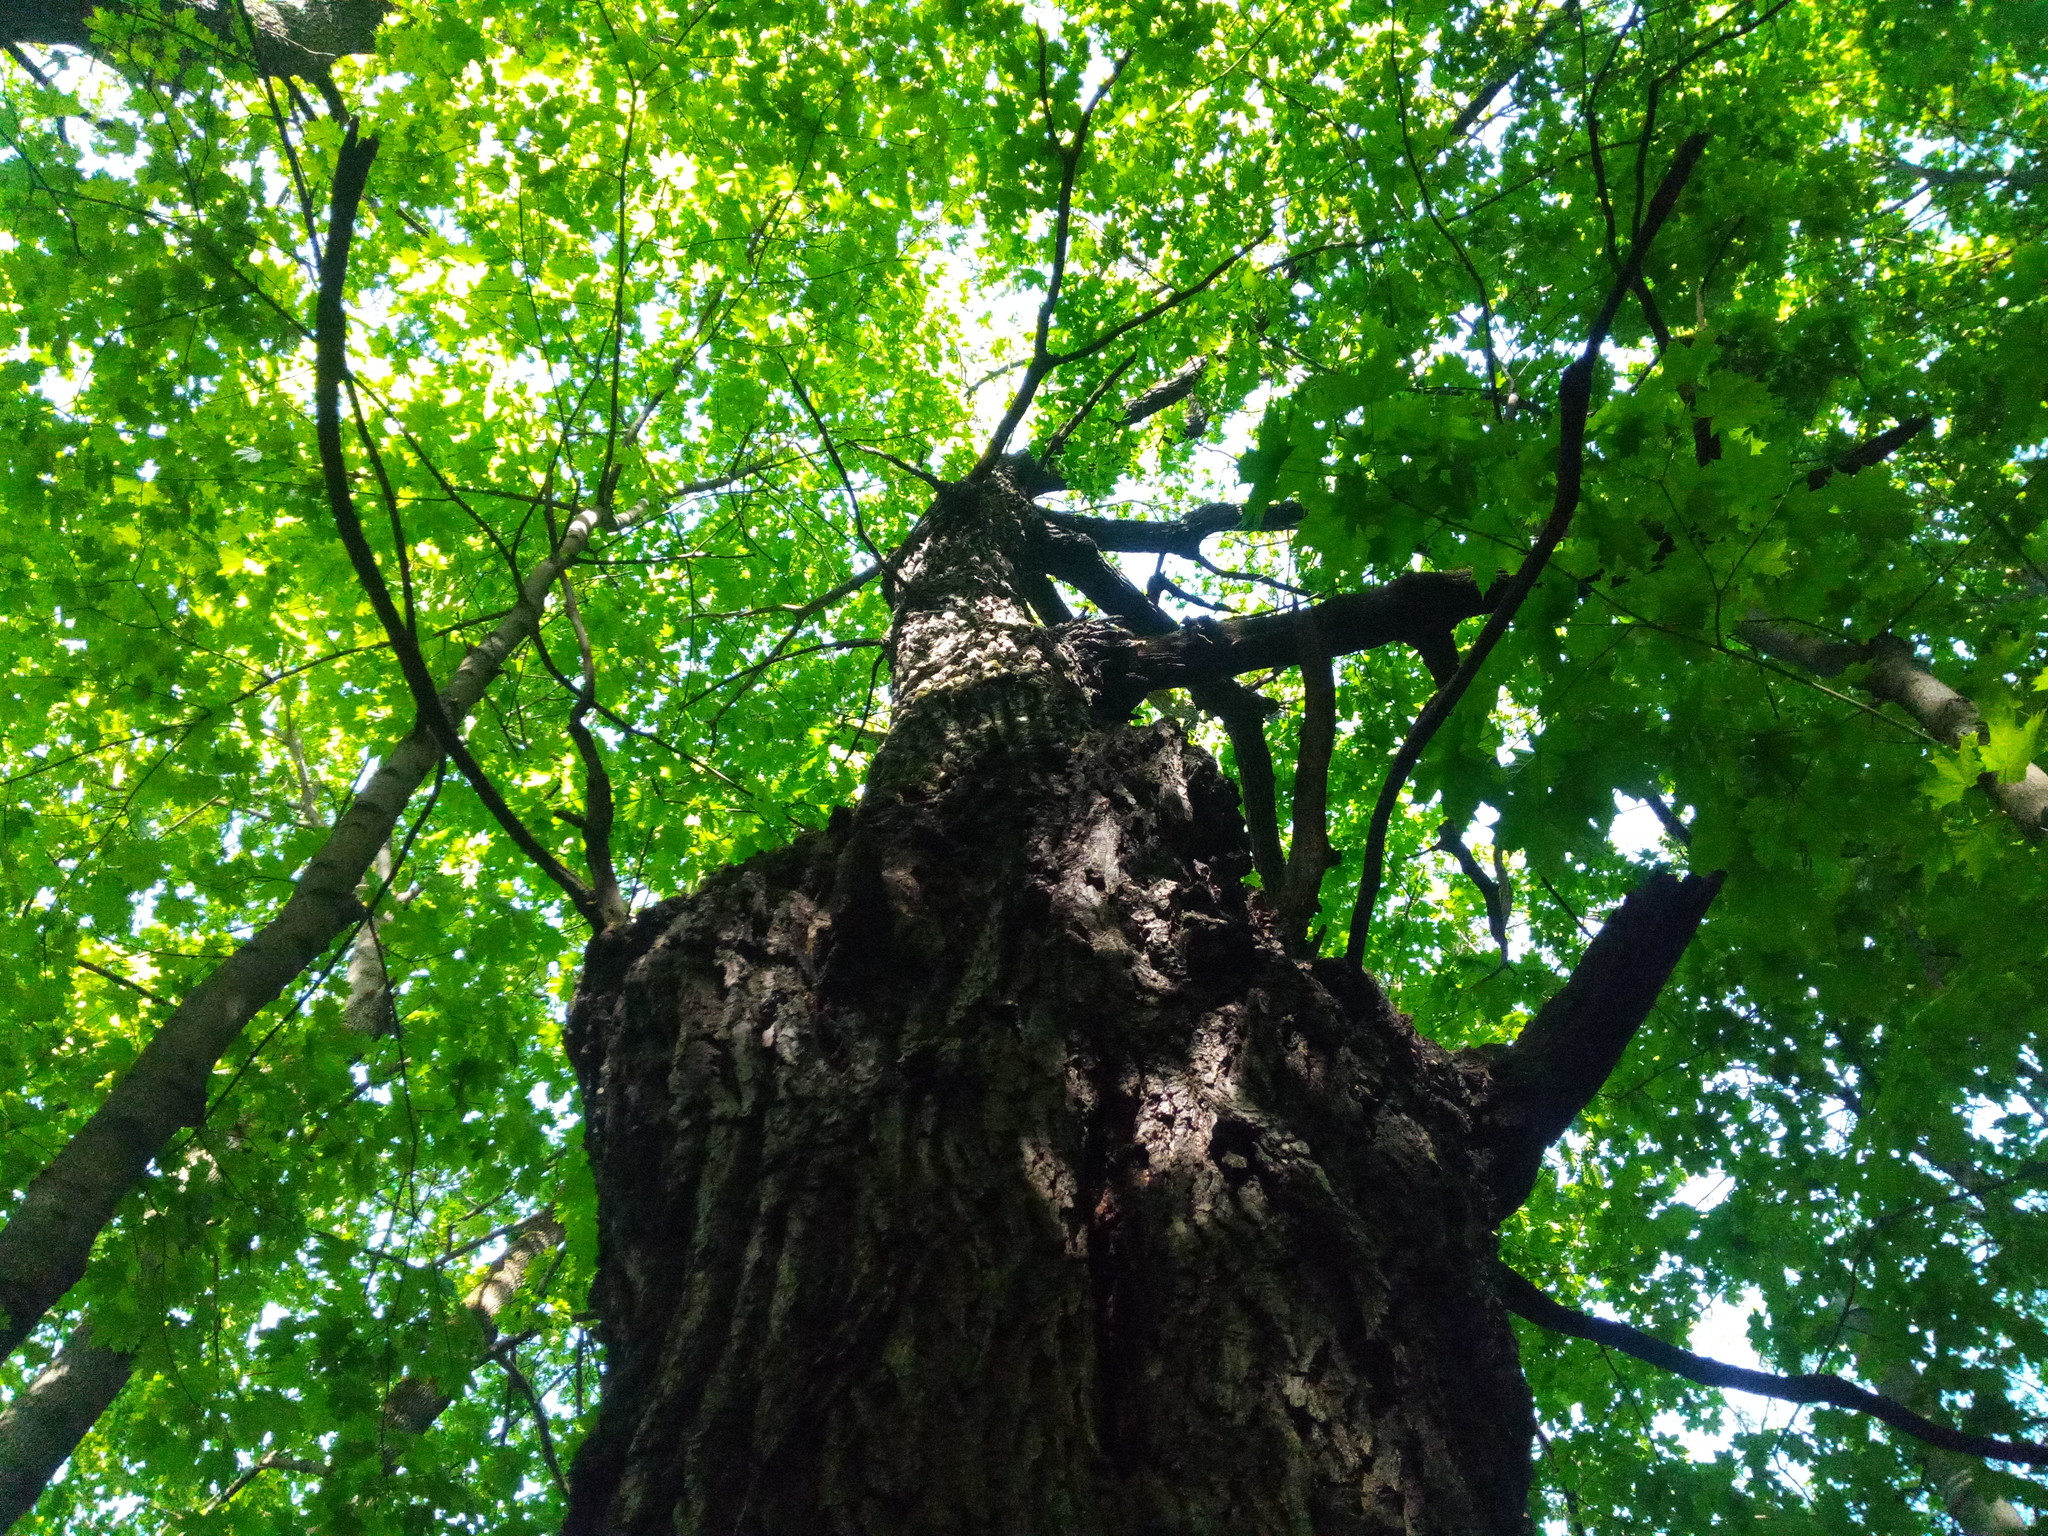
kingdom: Plantae
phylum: Tracheophyta
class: Magnoliopsida
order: Fagales
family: Fagaceae
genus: Quercus
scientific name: Quercus robur
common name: Pedunculate oak
